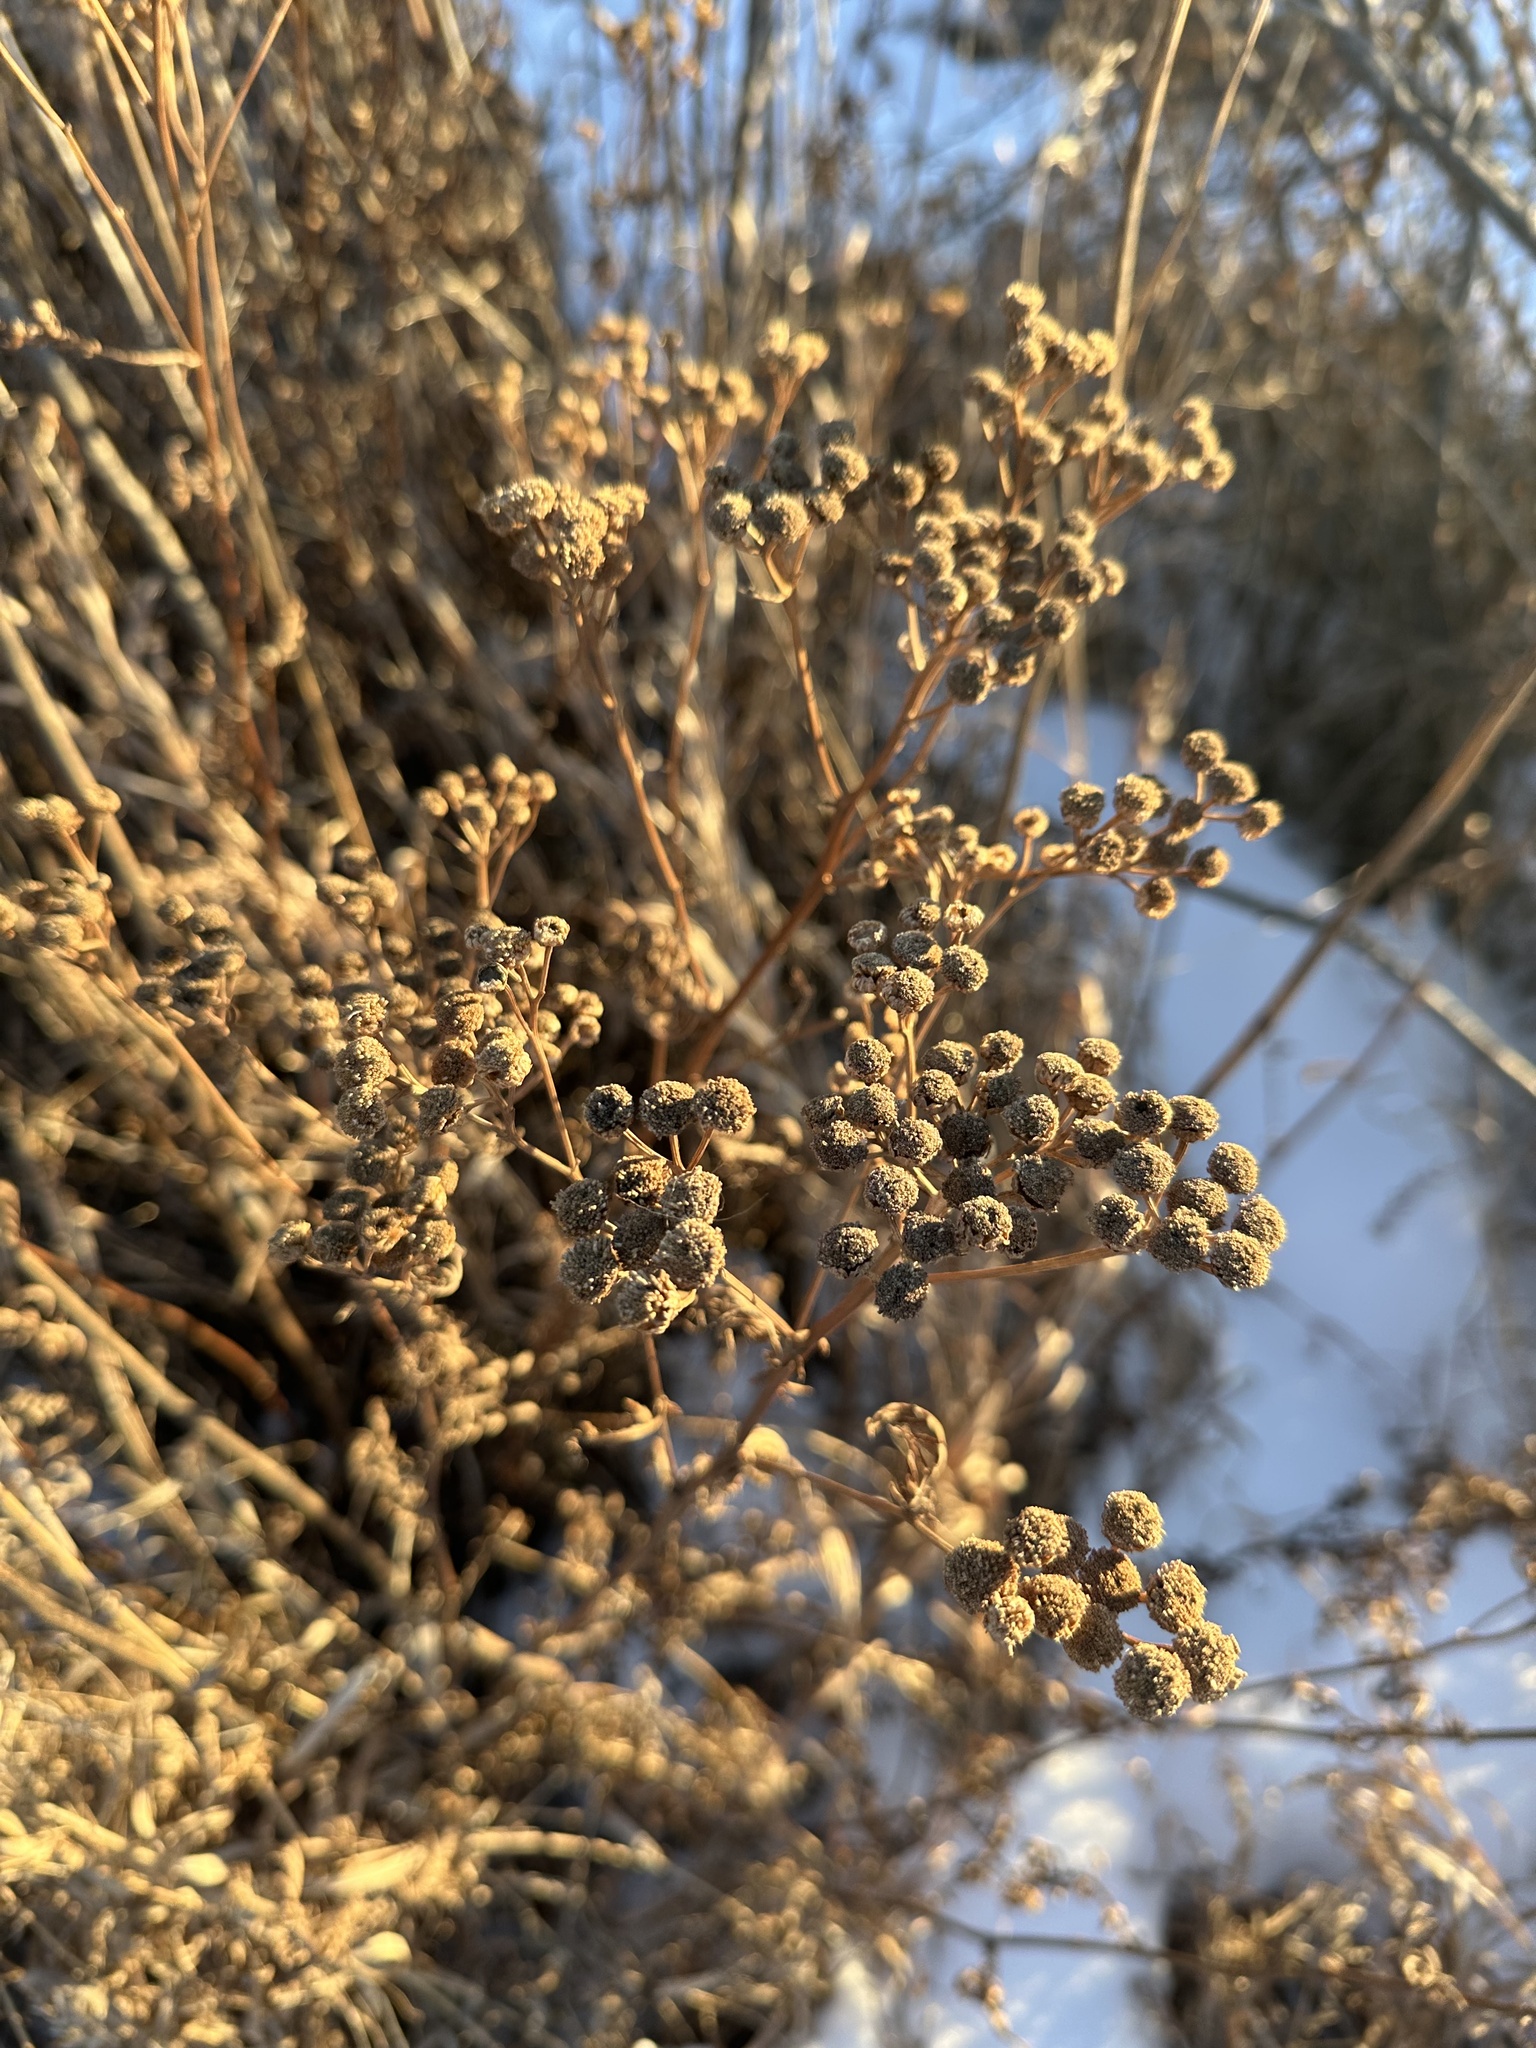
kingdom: Plantae
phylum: Tracheophyta
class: Magnoliopsida
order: Asterales
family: Asteraceae
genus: Tanacetum
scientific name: Tanacetum vulgare
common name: Common tansy
